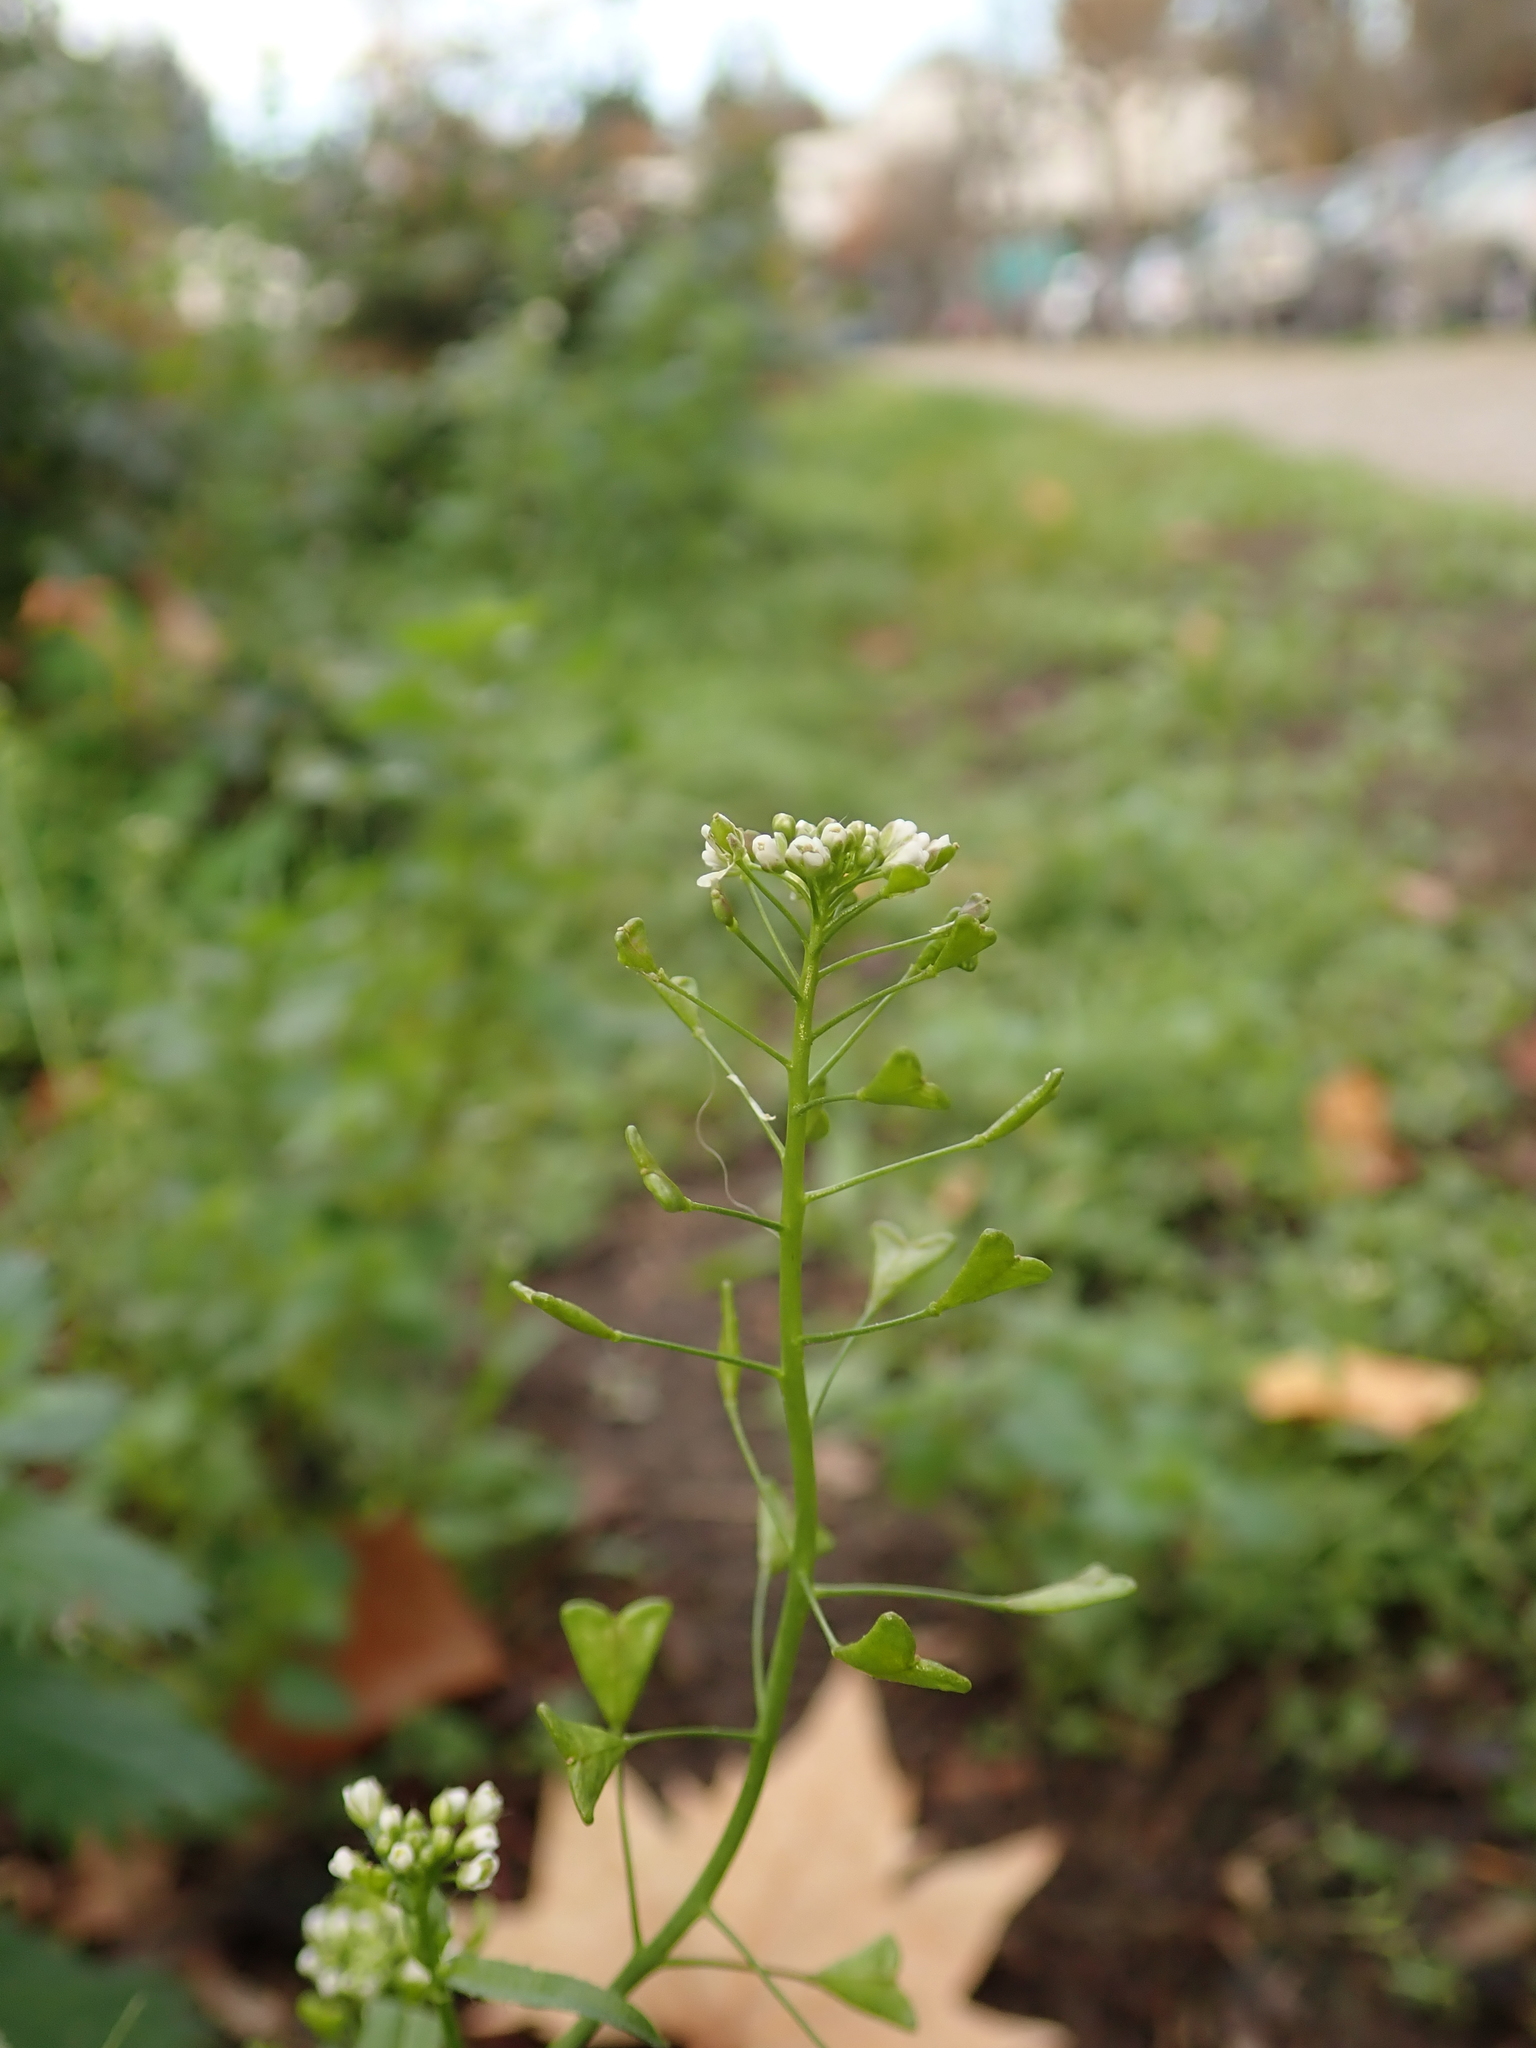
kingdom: Plantae
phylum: Tracheophyta
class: Magnoliopsida
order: Brassicales
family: Brassicaceae
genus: Capsella
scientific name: Capsella bursa-pastoris
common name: Shepherd's purse
